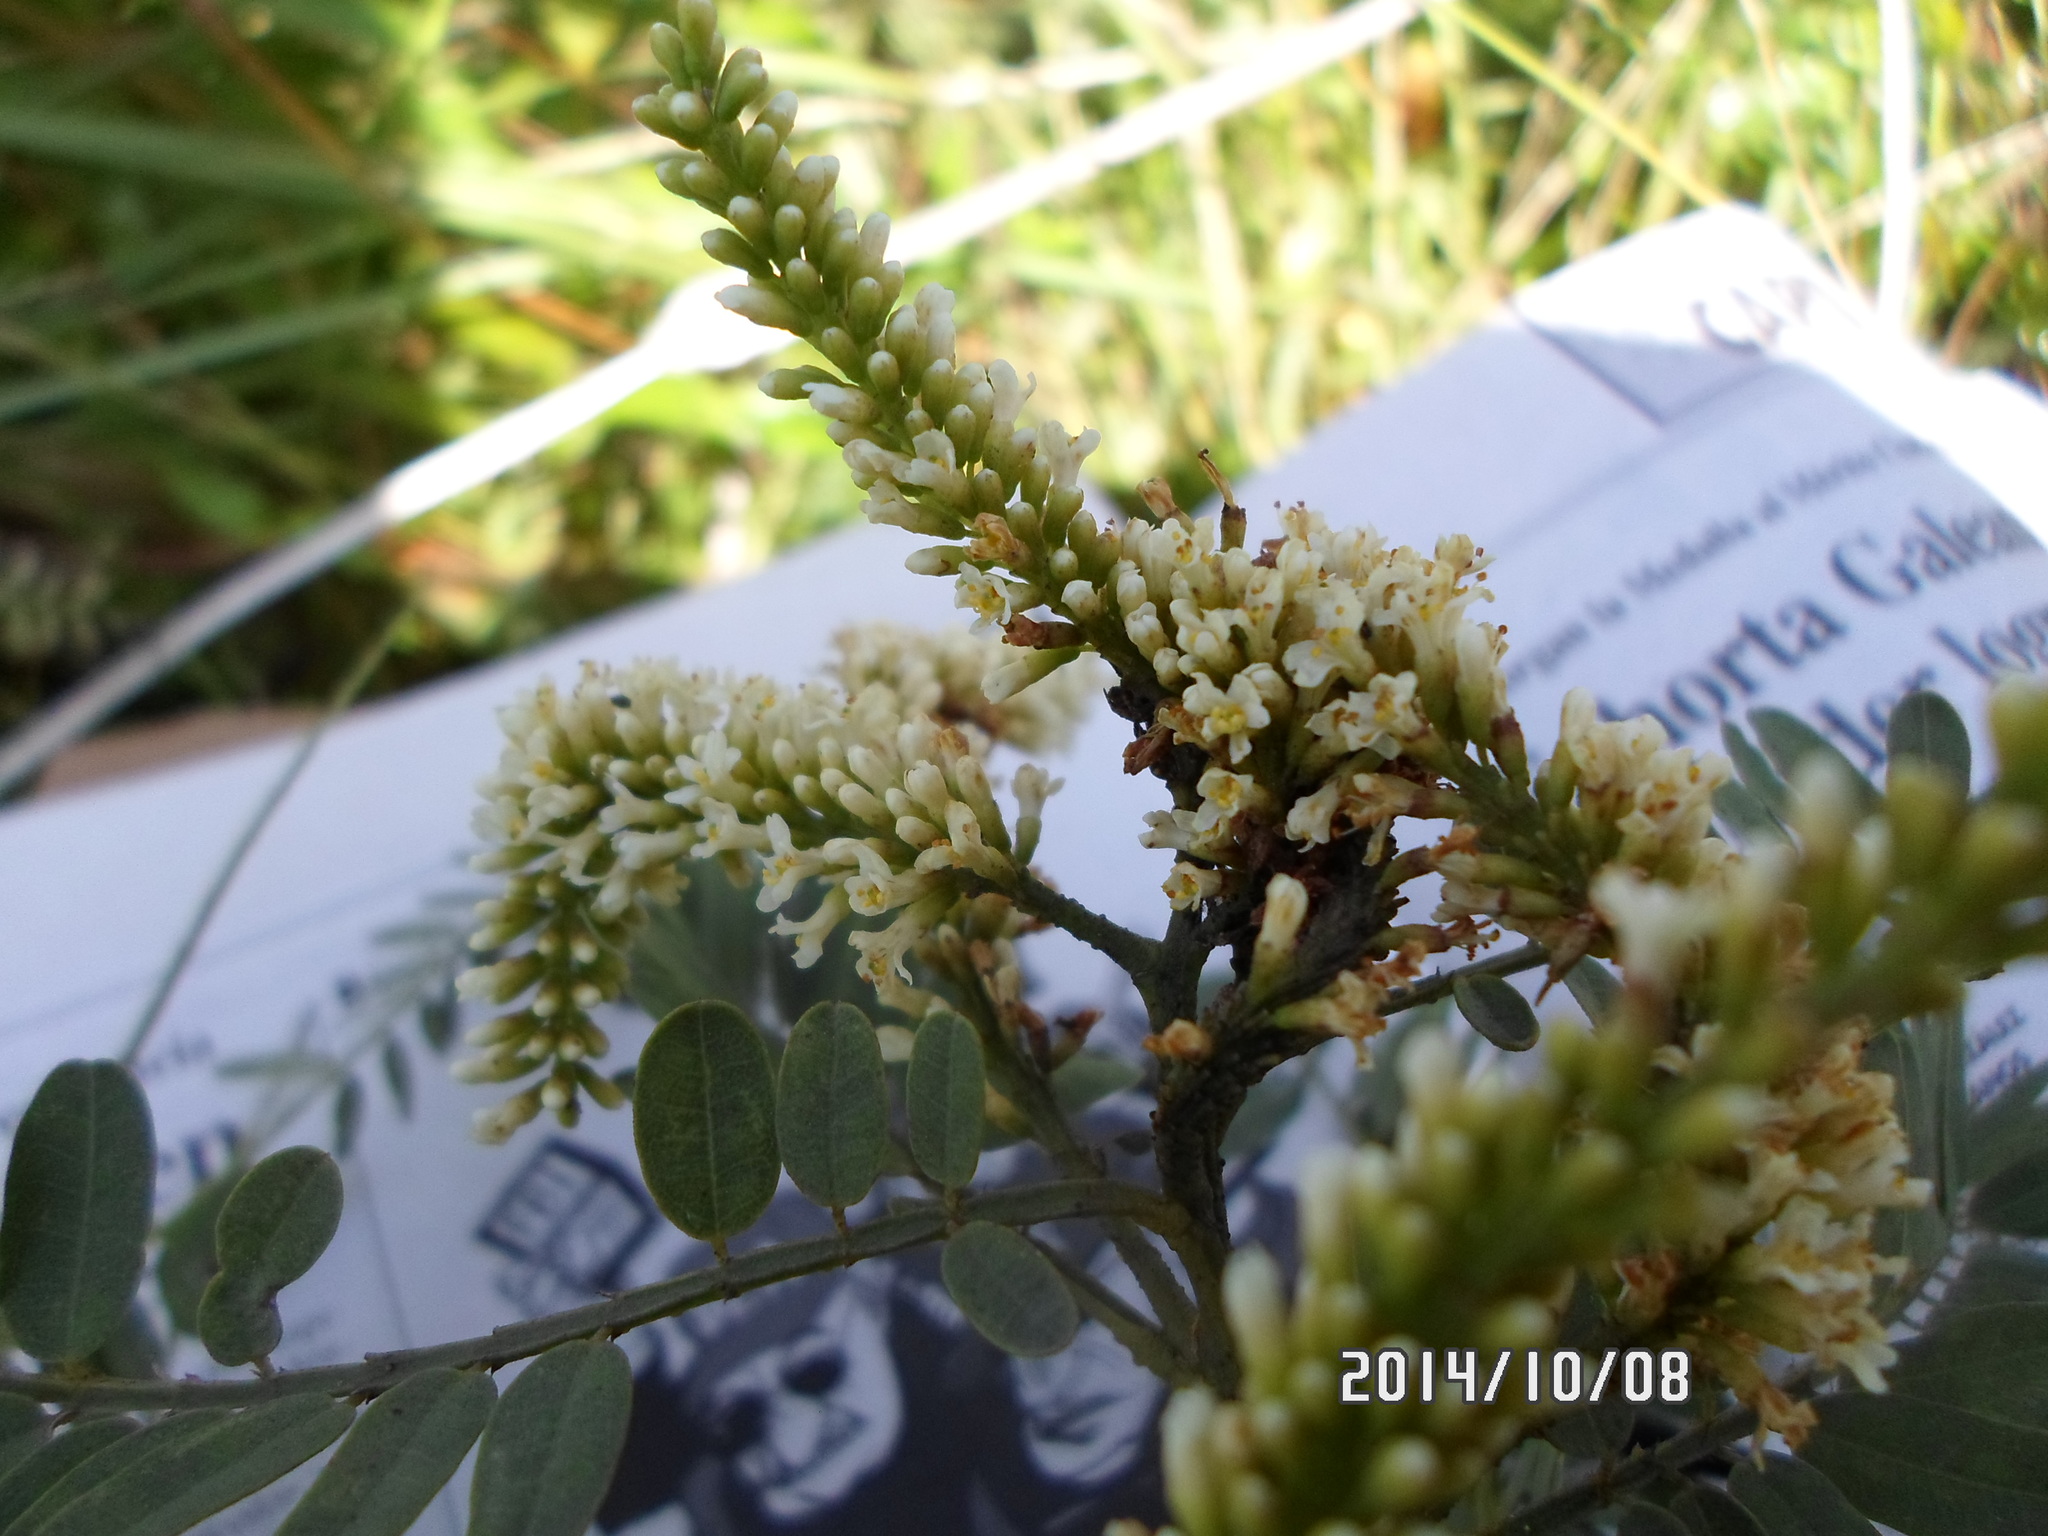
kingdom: Plantae
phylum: Tracheophyta
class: Magnoliopsida
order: Fabales
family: Fabaceae
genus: Eysenhardtia
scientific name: Eysenhardtia polystachya
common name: Kidneywood
